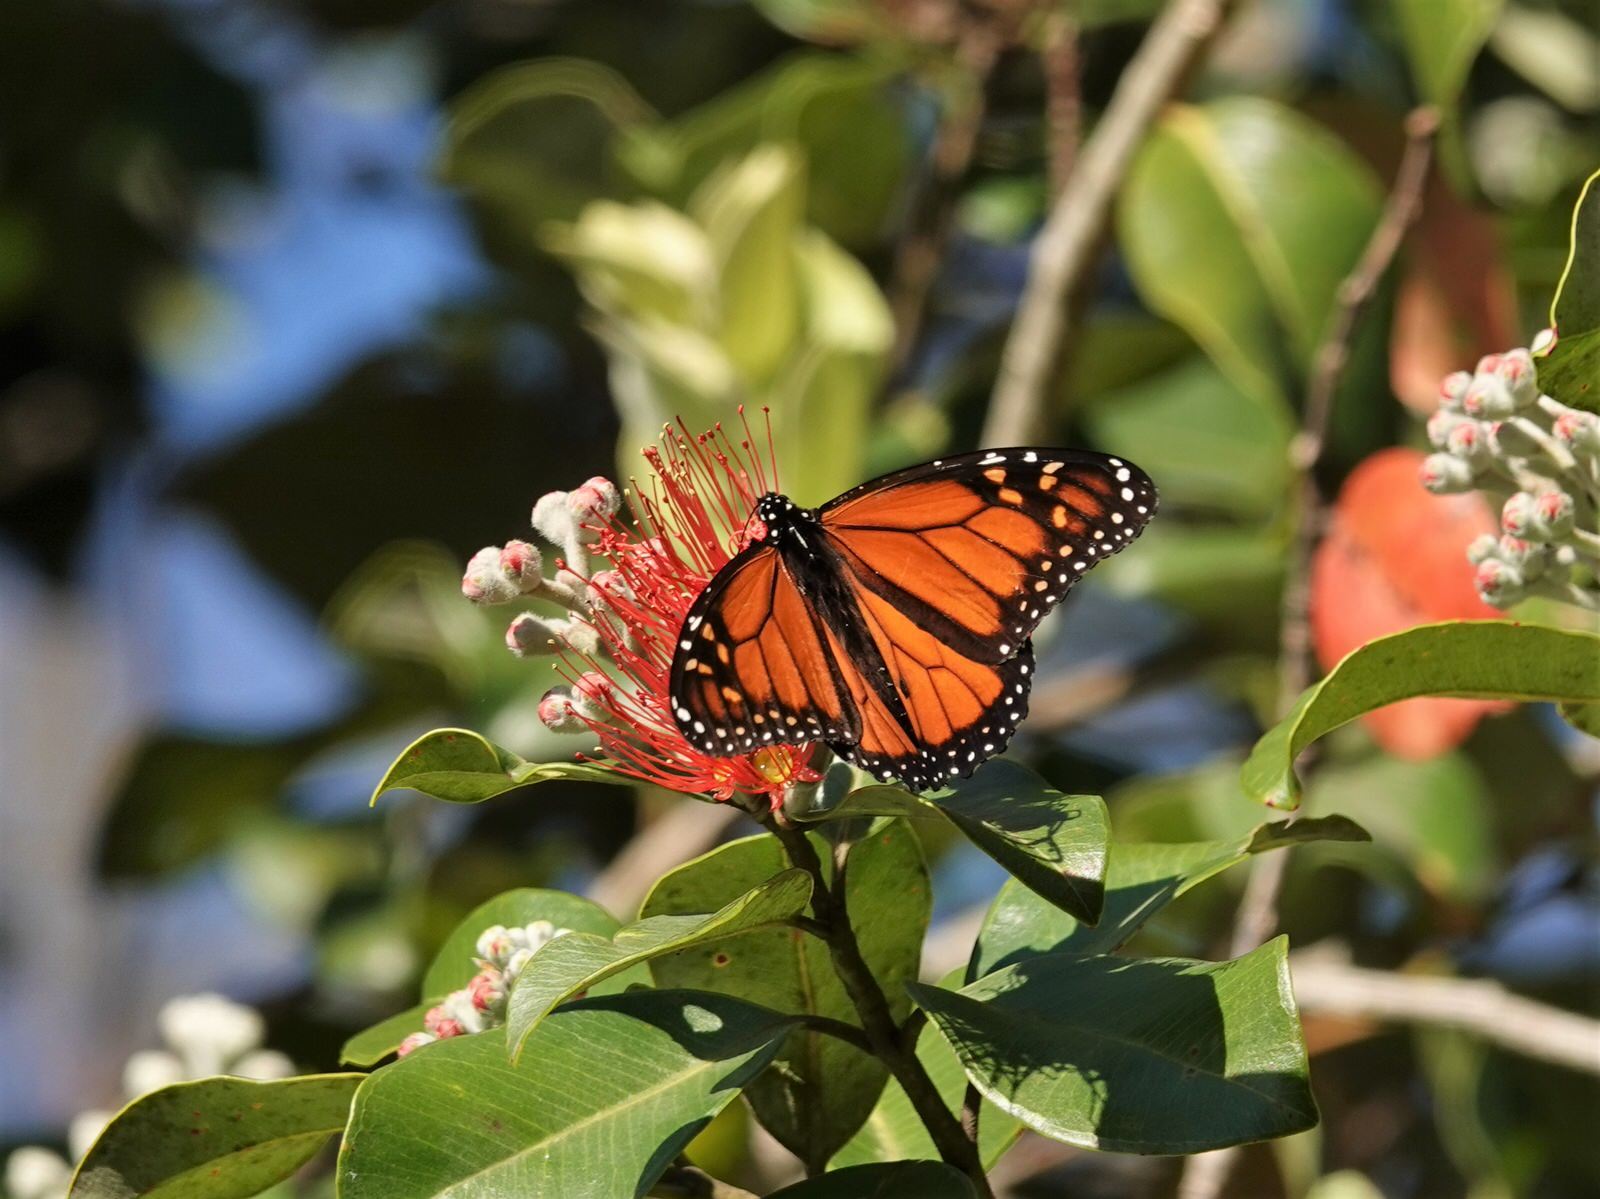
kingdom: Animalia
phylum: Arthropoda
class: Insecta
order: Lepidoptera
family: Nymphalidae
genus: Danaus
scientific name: Danaus plexippus
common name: Monarch
